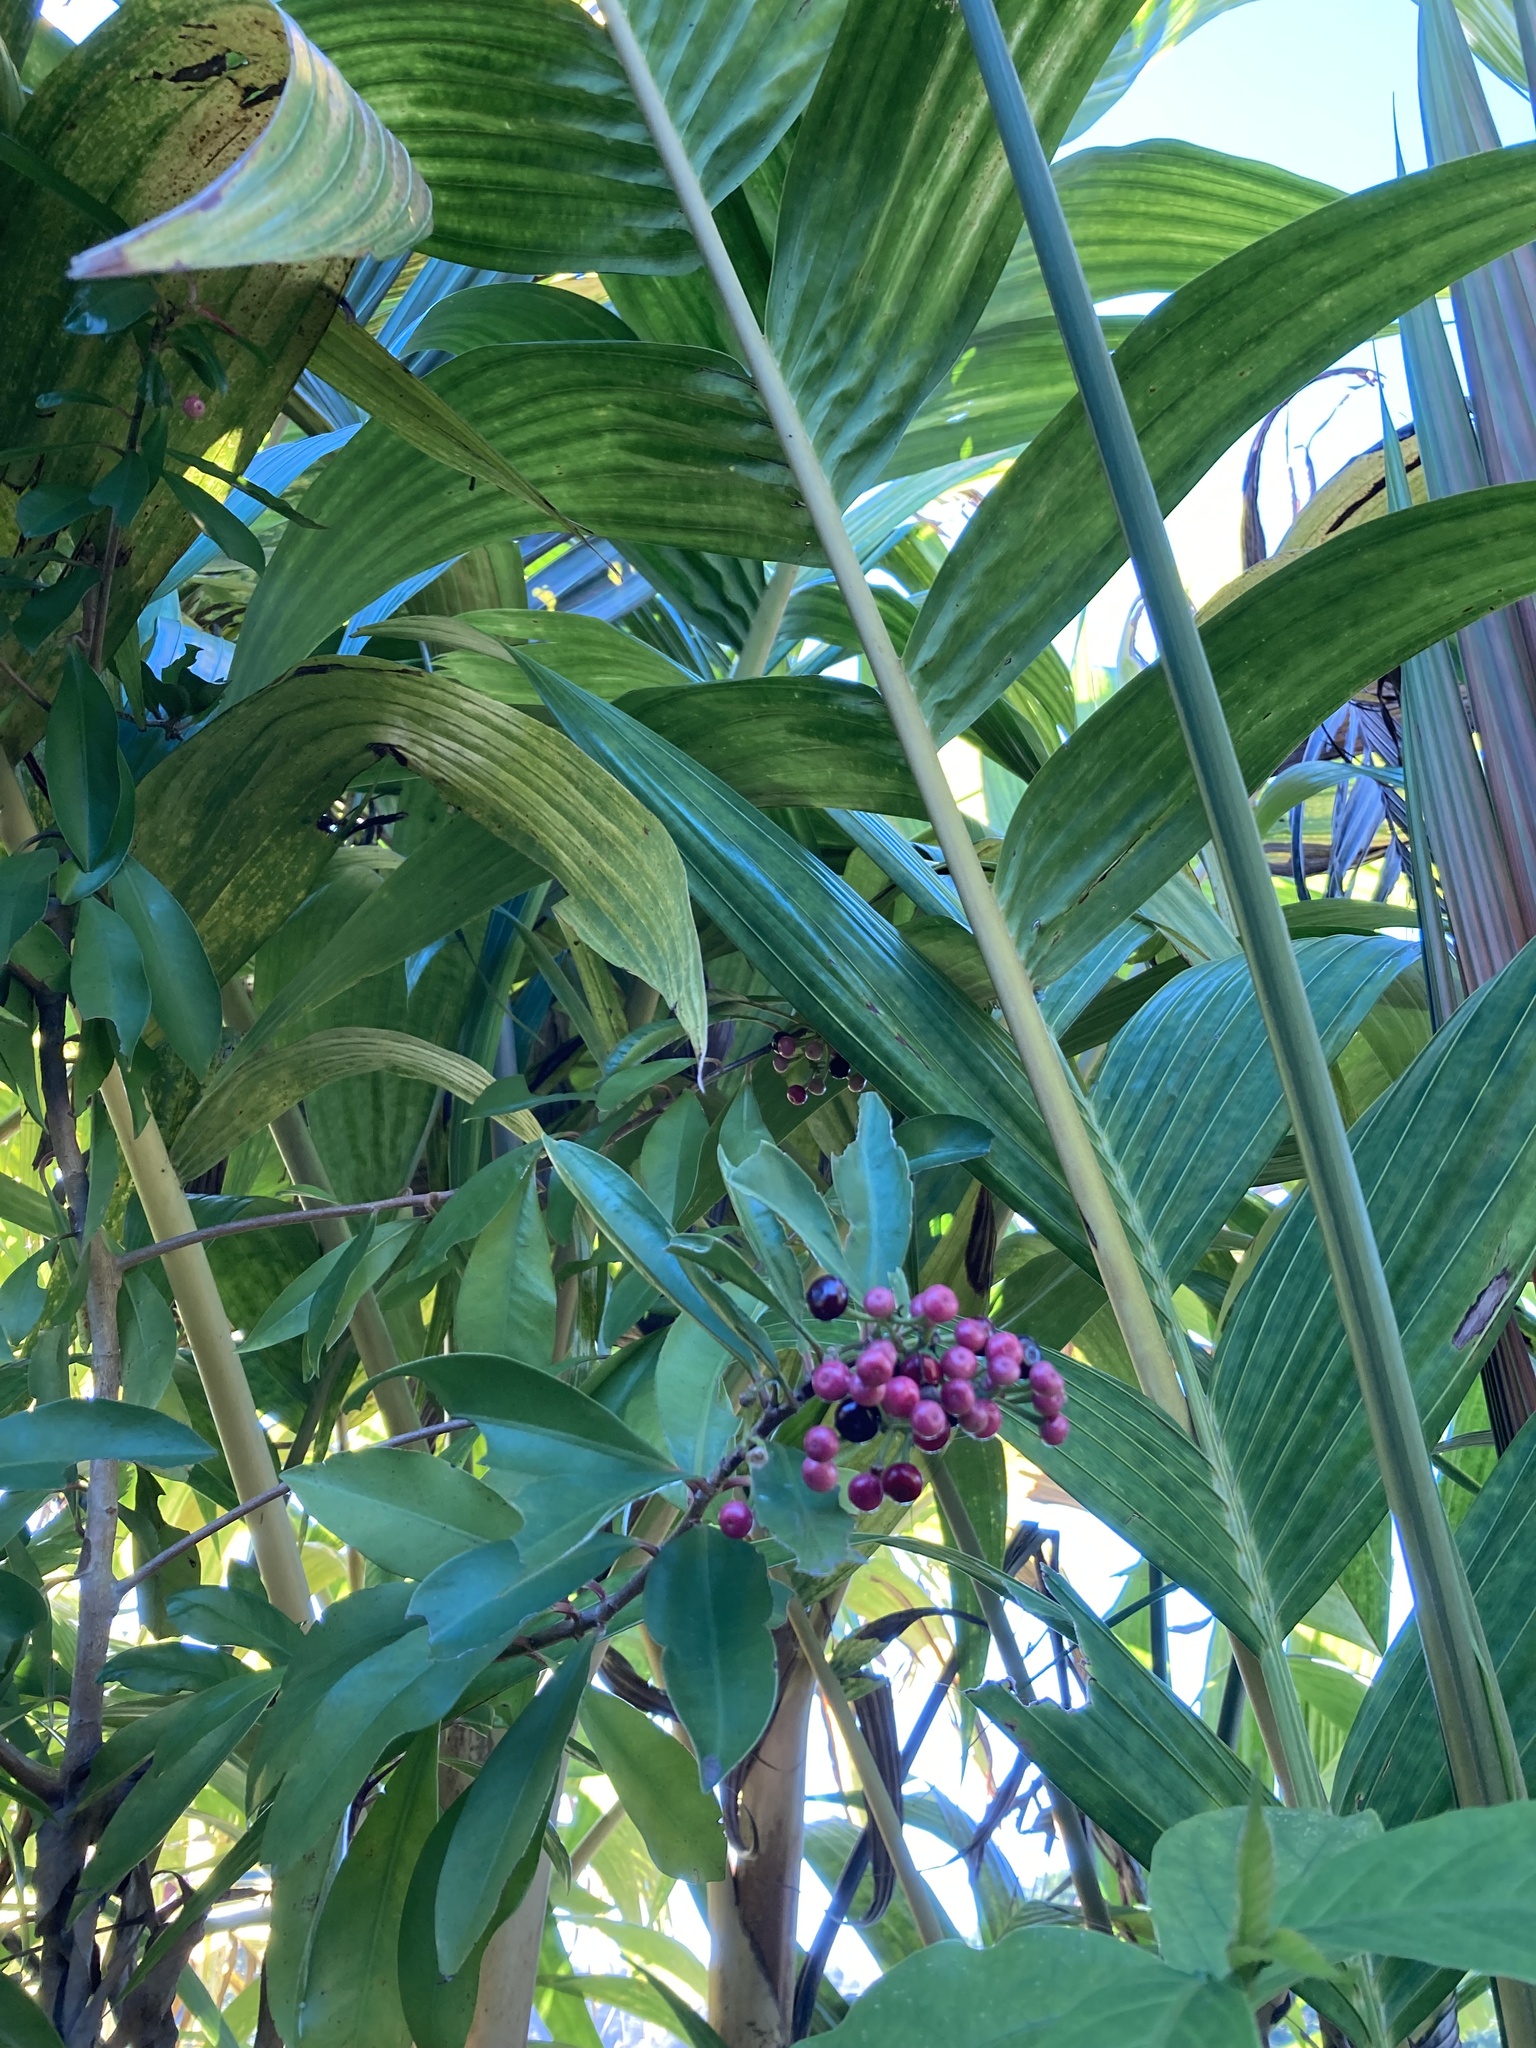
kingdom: Plantae
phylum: Tracheophyta
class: Magnoliopsida
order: Ericales
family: Primulaceae
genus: Ardisia
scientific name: Ardisia elliptica
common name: Shoebutton
